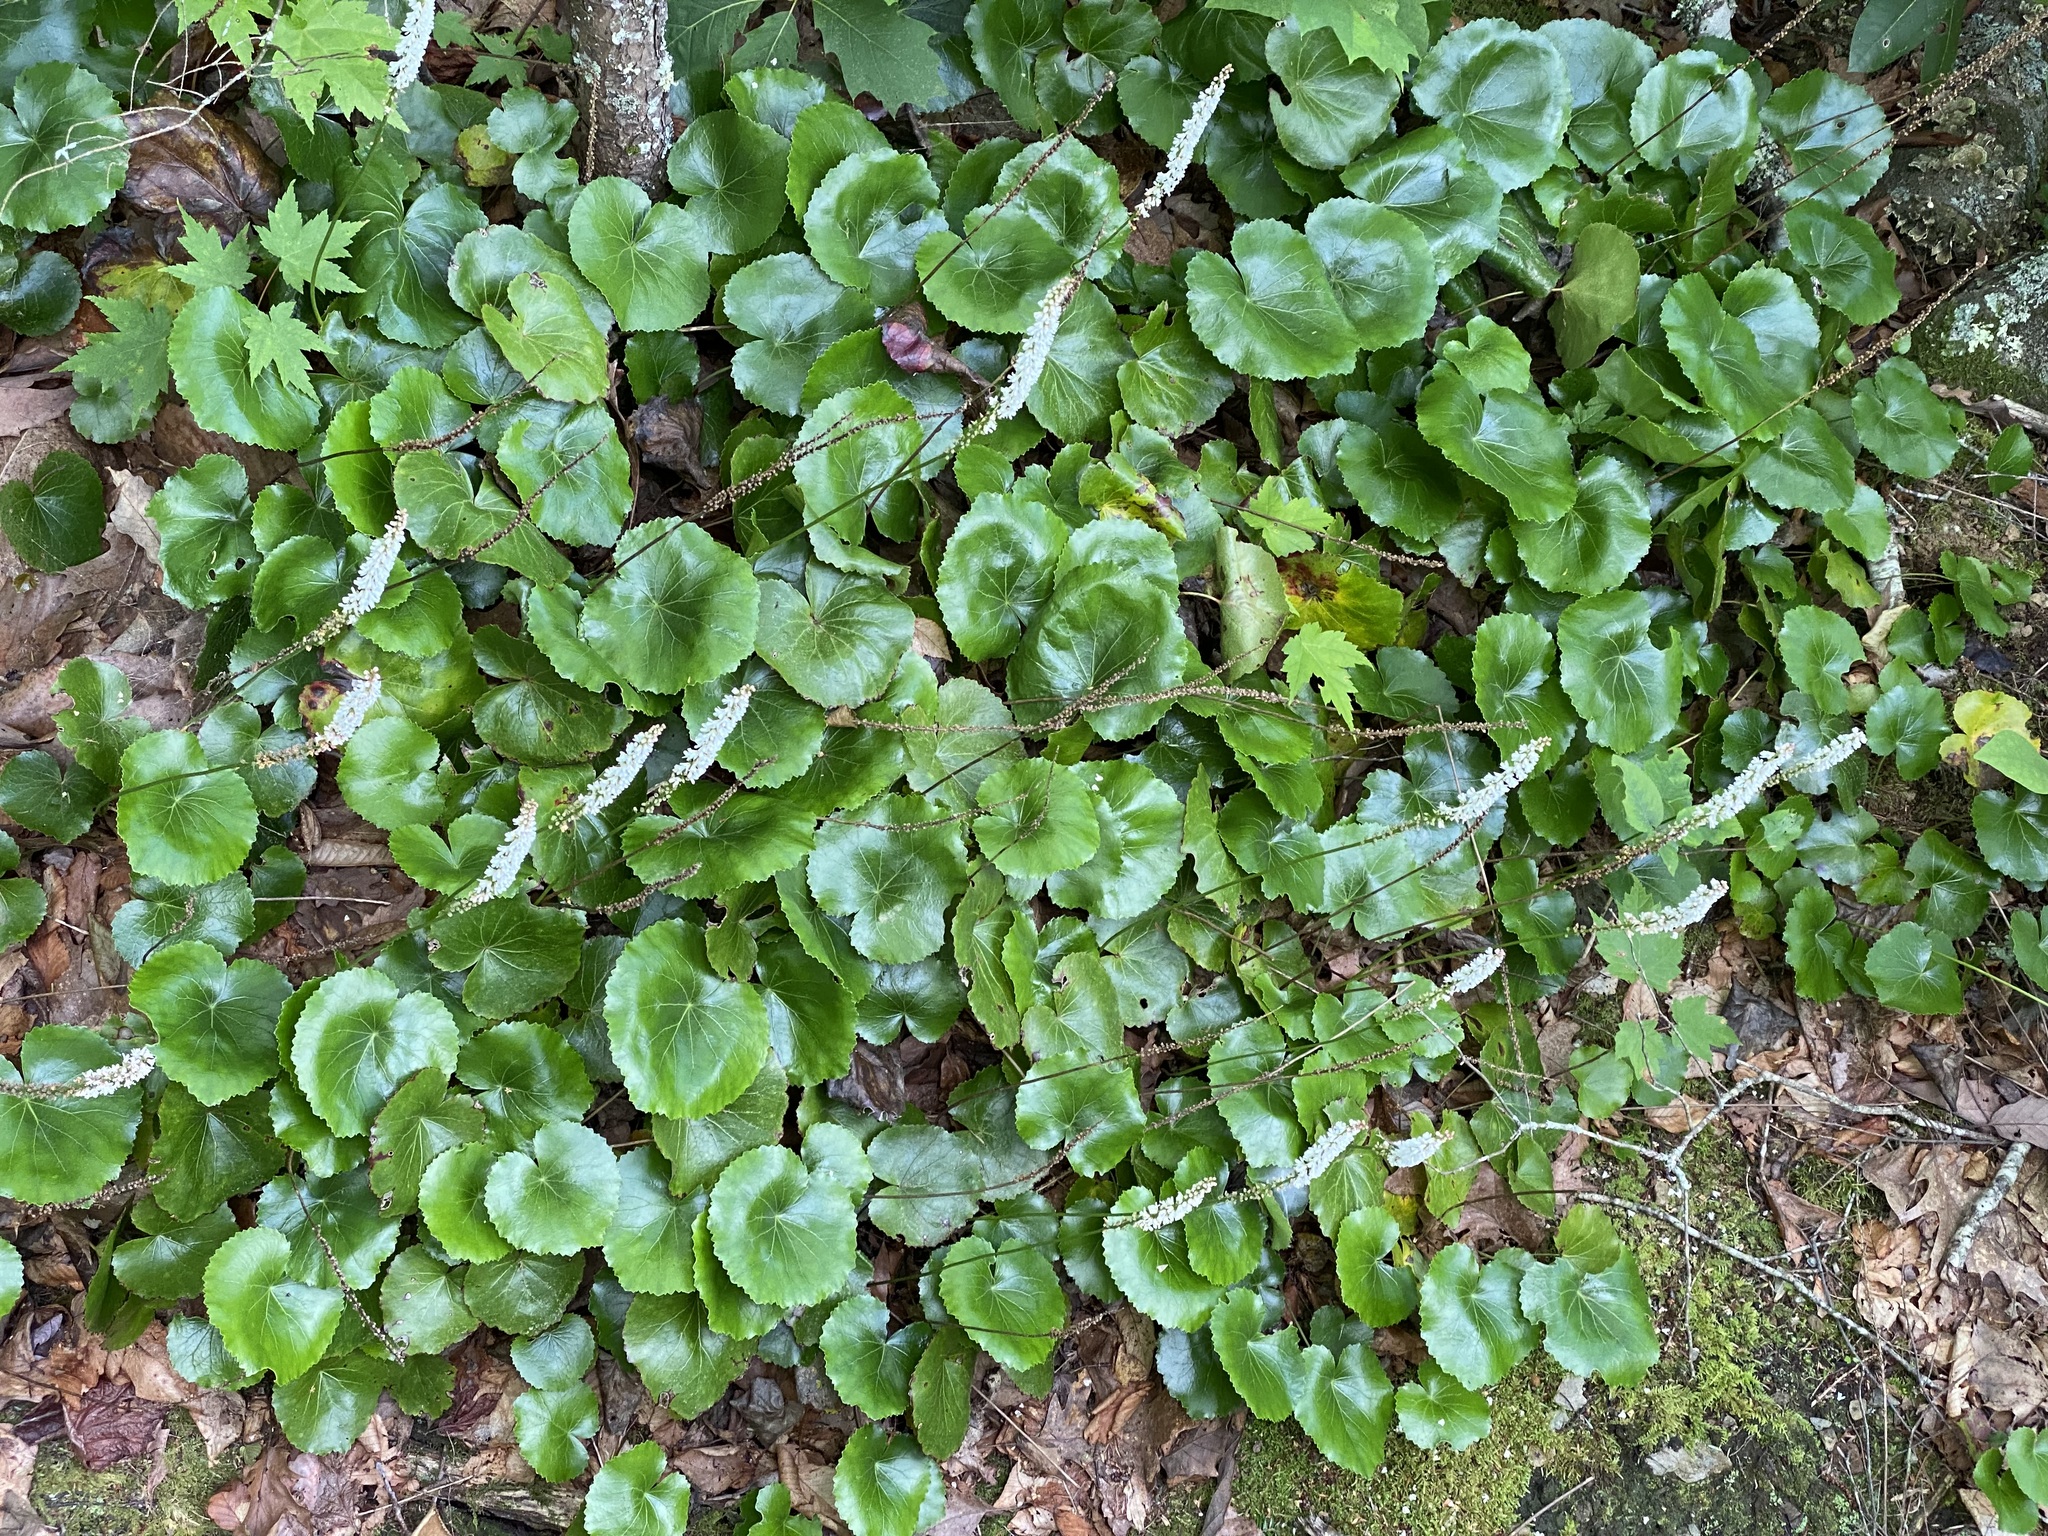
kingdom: Plantae
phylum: Tracheophyta
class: Magnoliopsida
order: Ericales
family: Diapensiaceae
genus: Galax
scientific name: Galax urceolata
